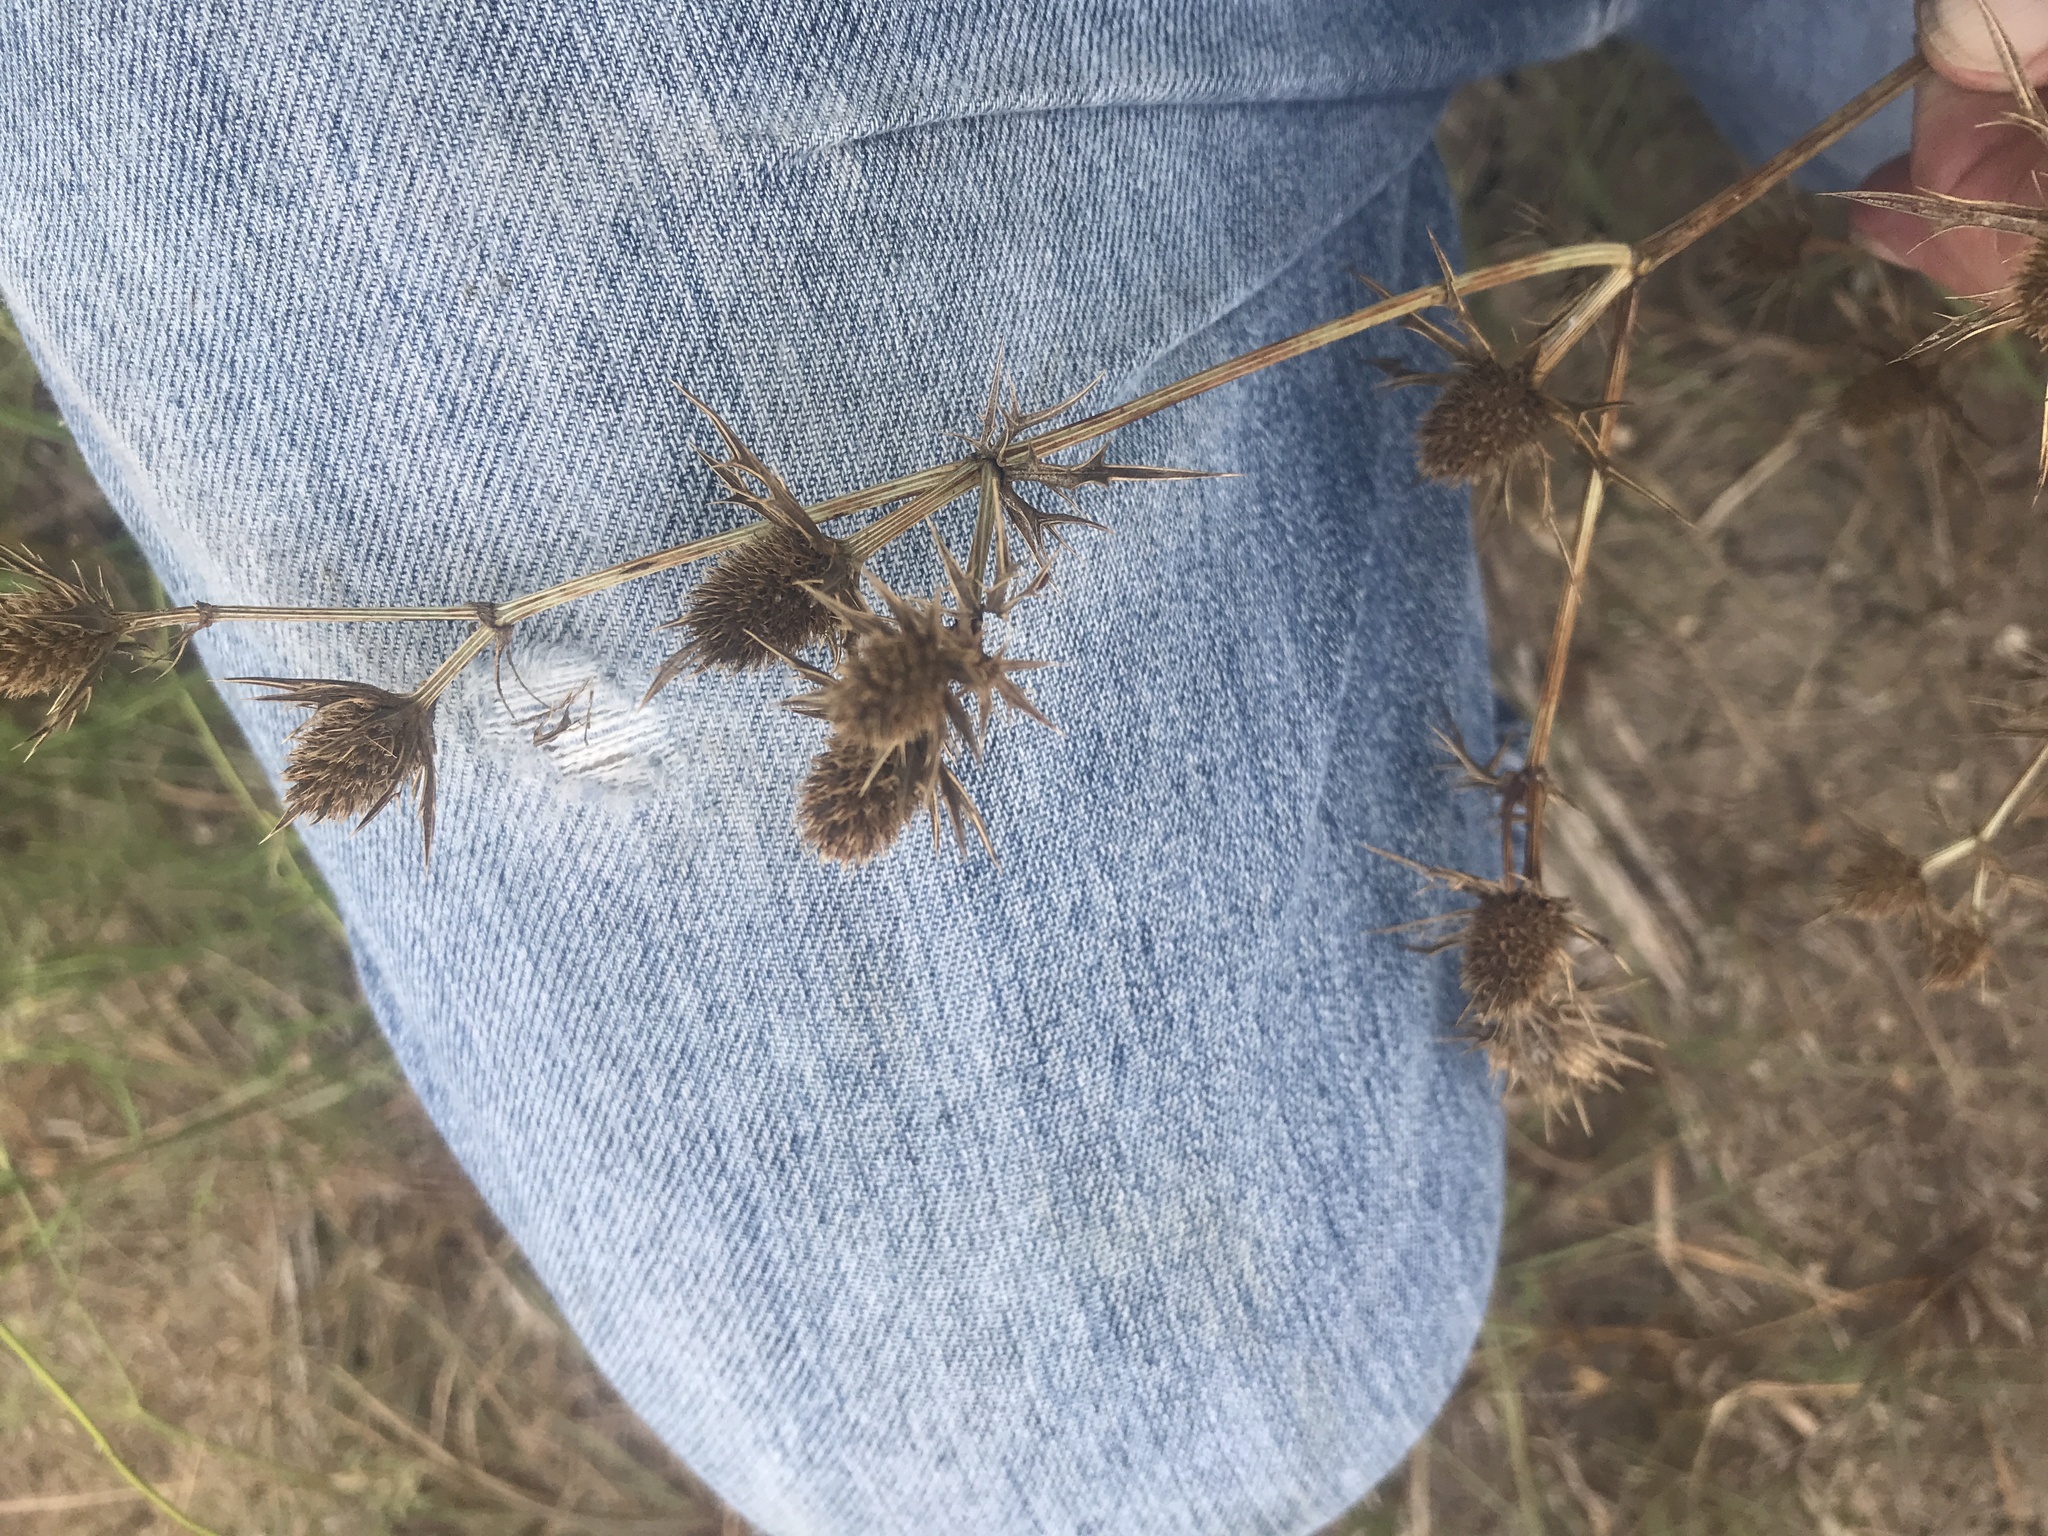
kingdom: Plantae
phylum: Tracheophyta
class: Magnoliopsida
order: Apiales
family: Apiaceae
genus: Eryngium
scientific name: Eryngium hookeri
